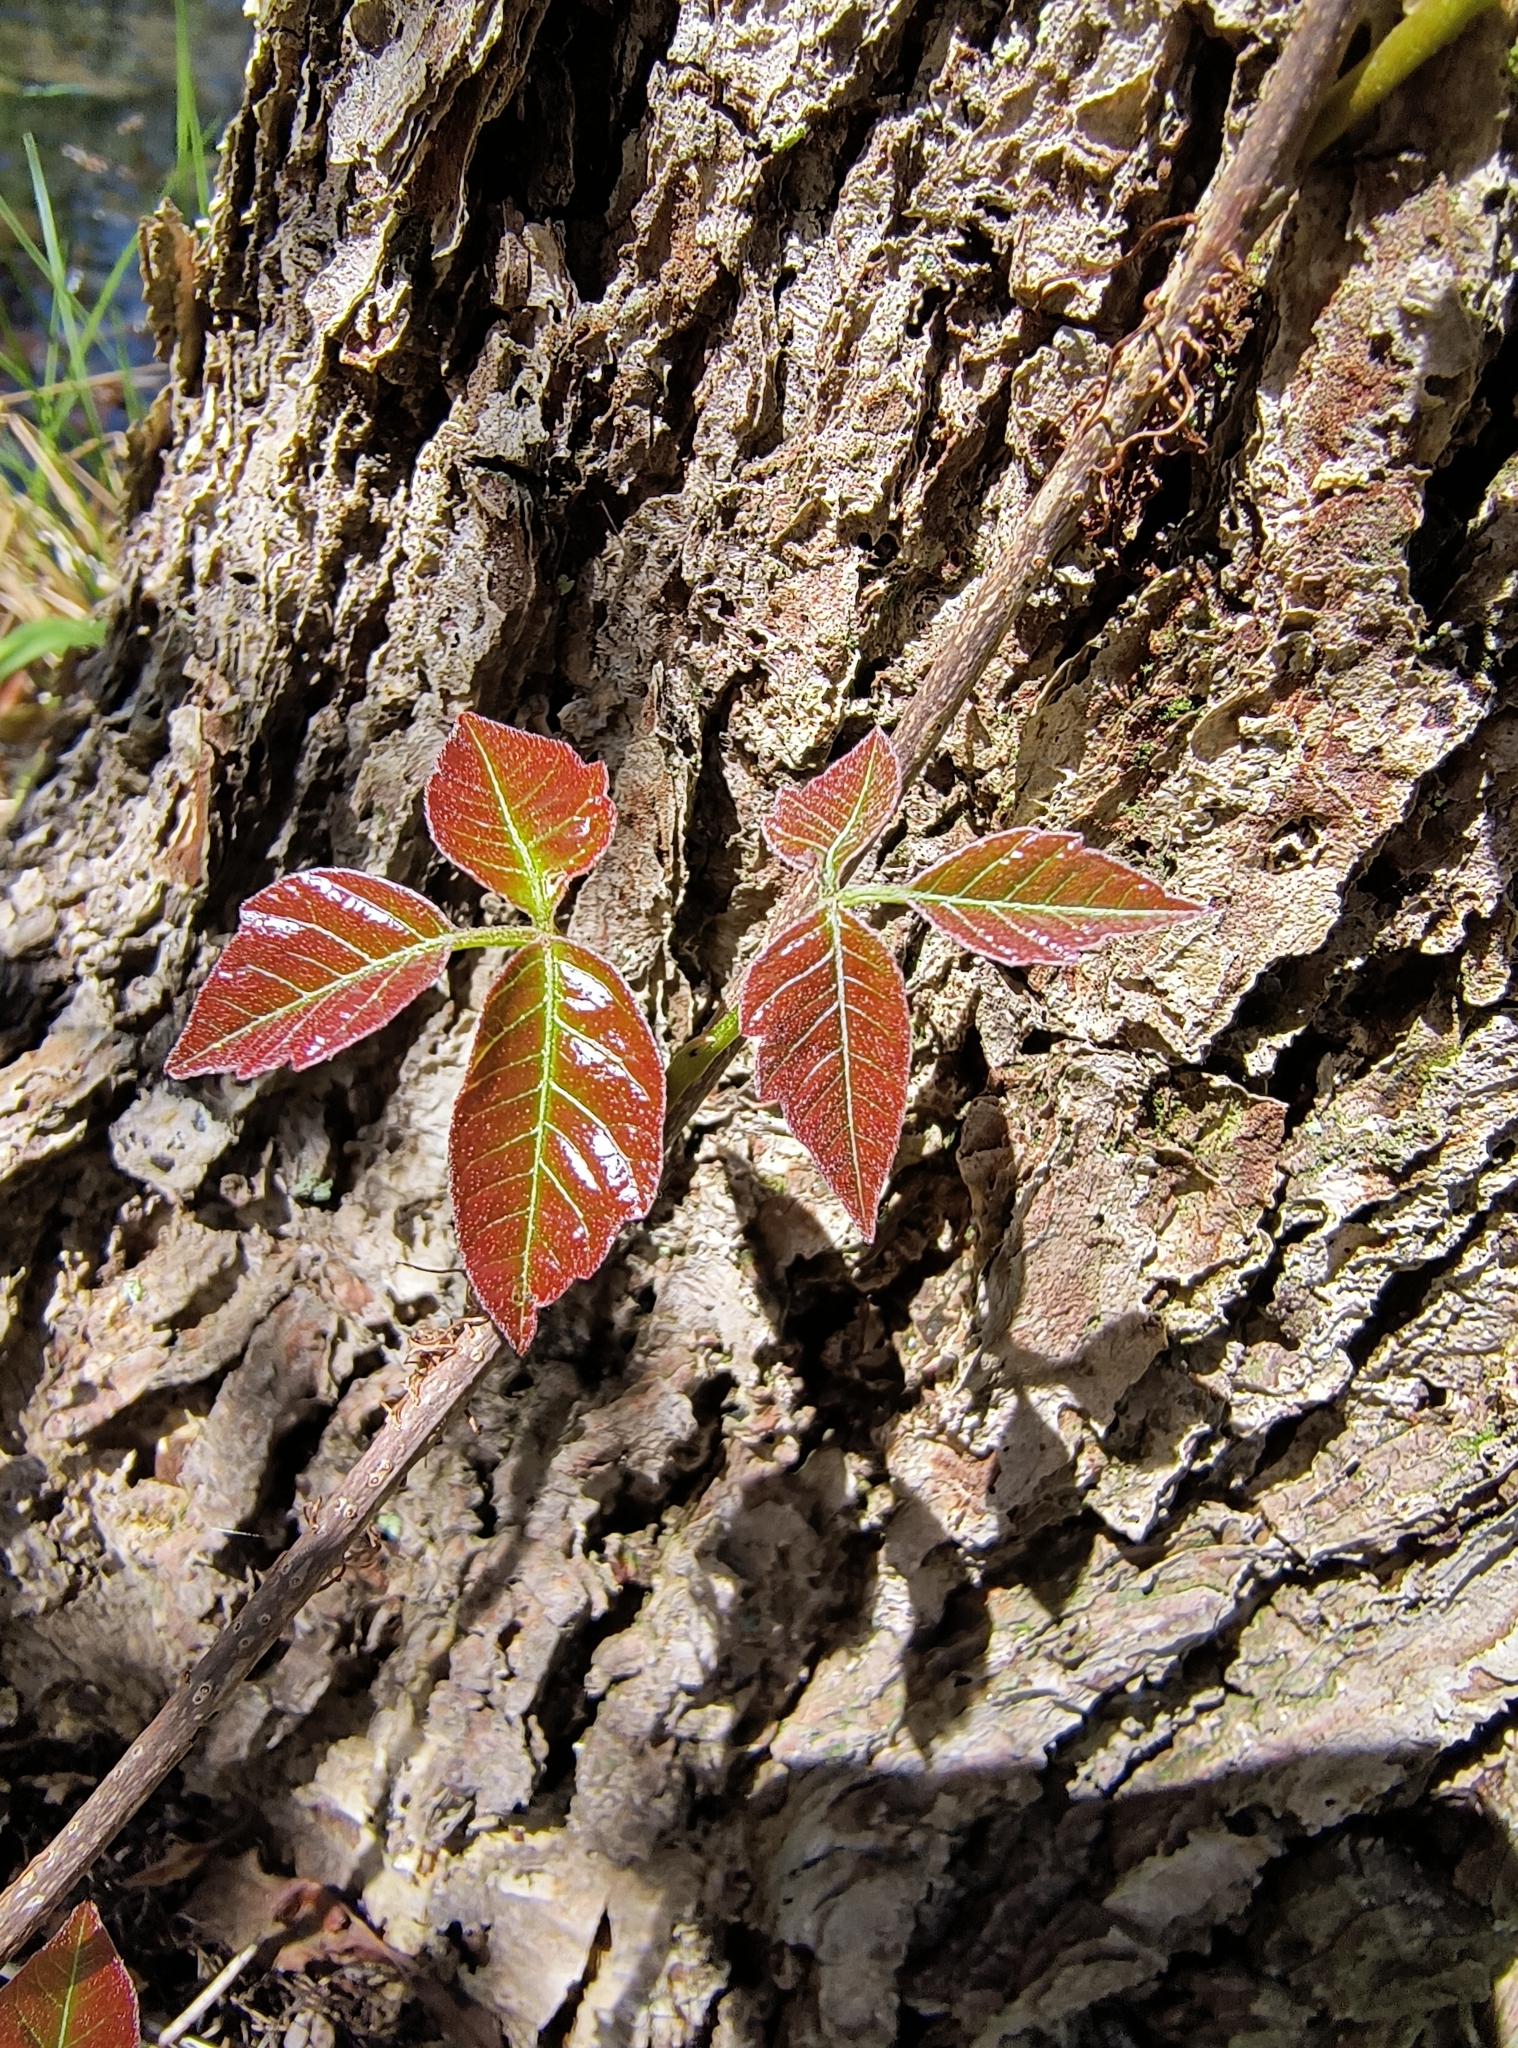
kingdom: Plantae
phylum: Tracheophyta
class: Magnoliopsida
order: Sapindales
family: Anacardiaceae
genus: Toxicodendron
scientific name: Toxicodendron radicans
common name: Poison ivy
